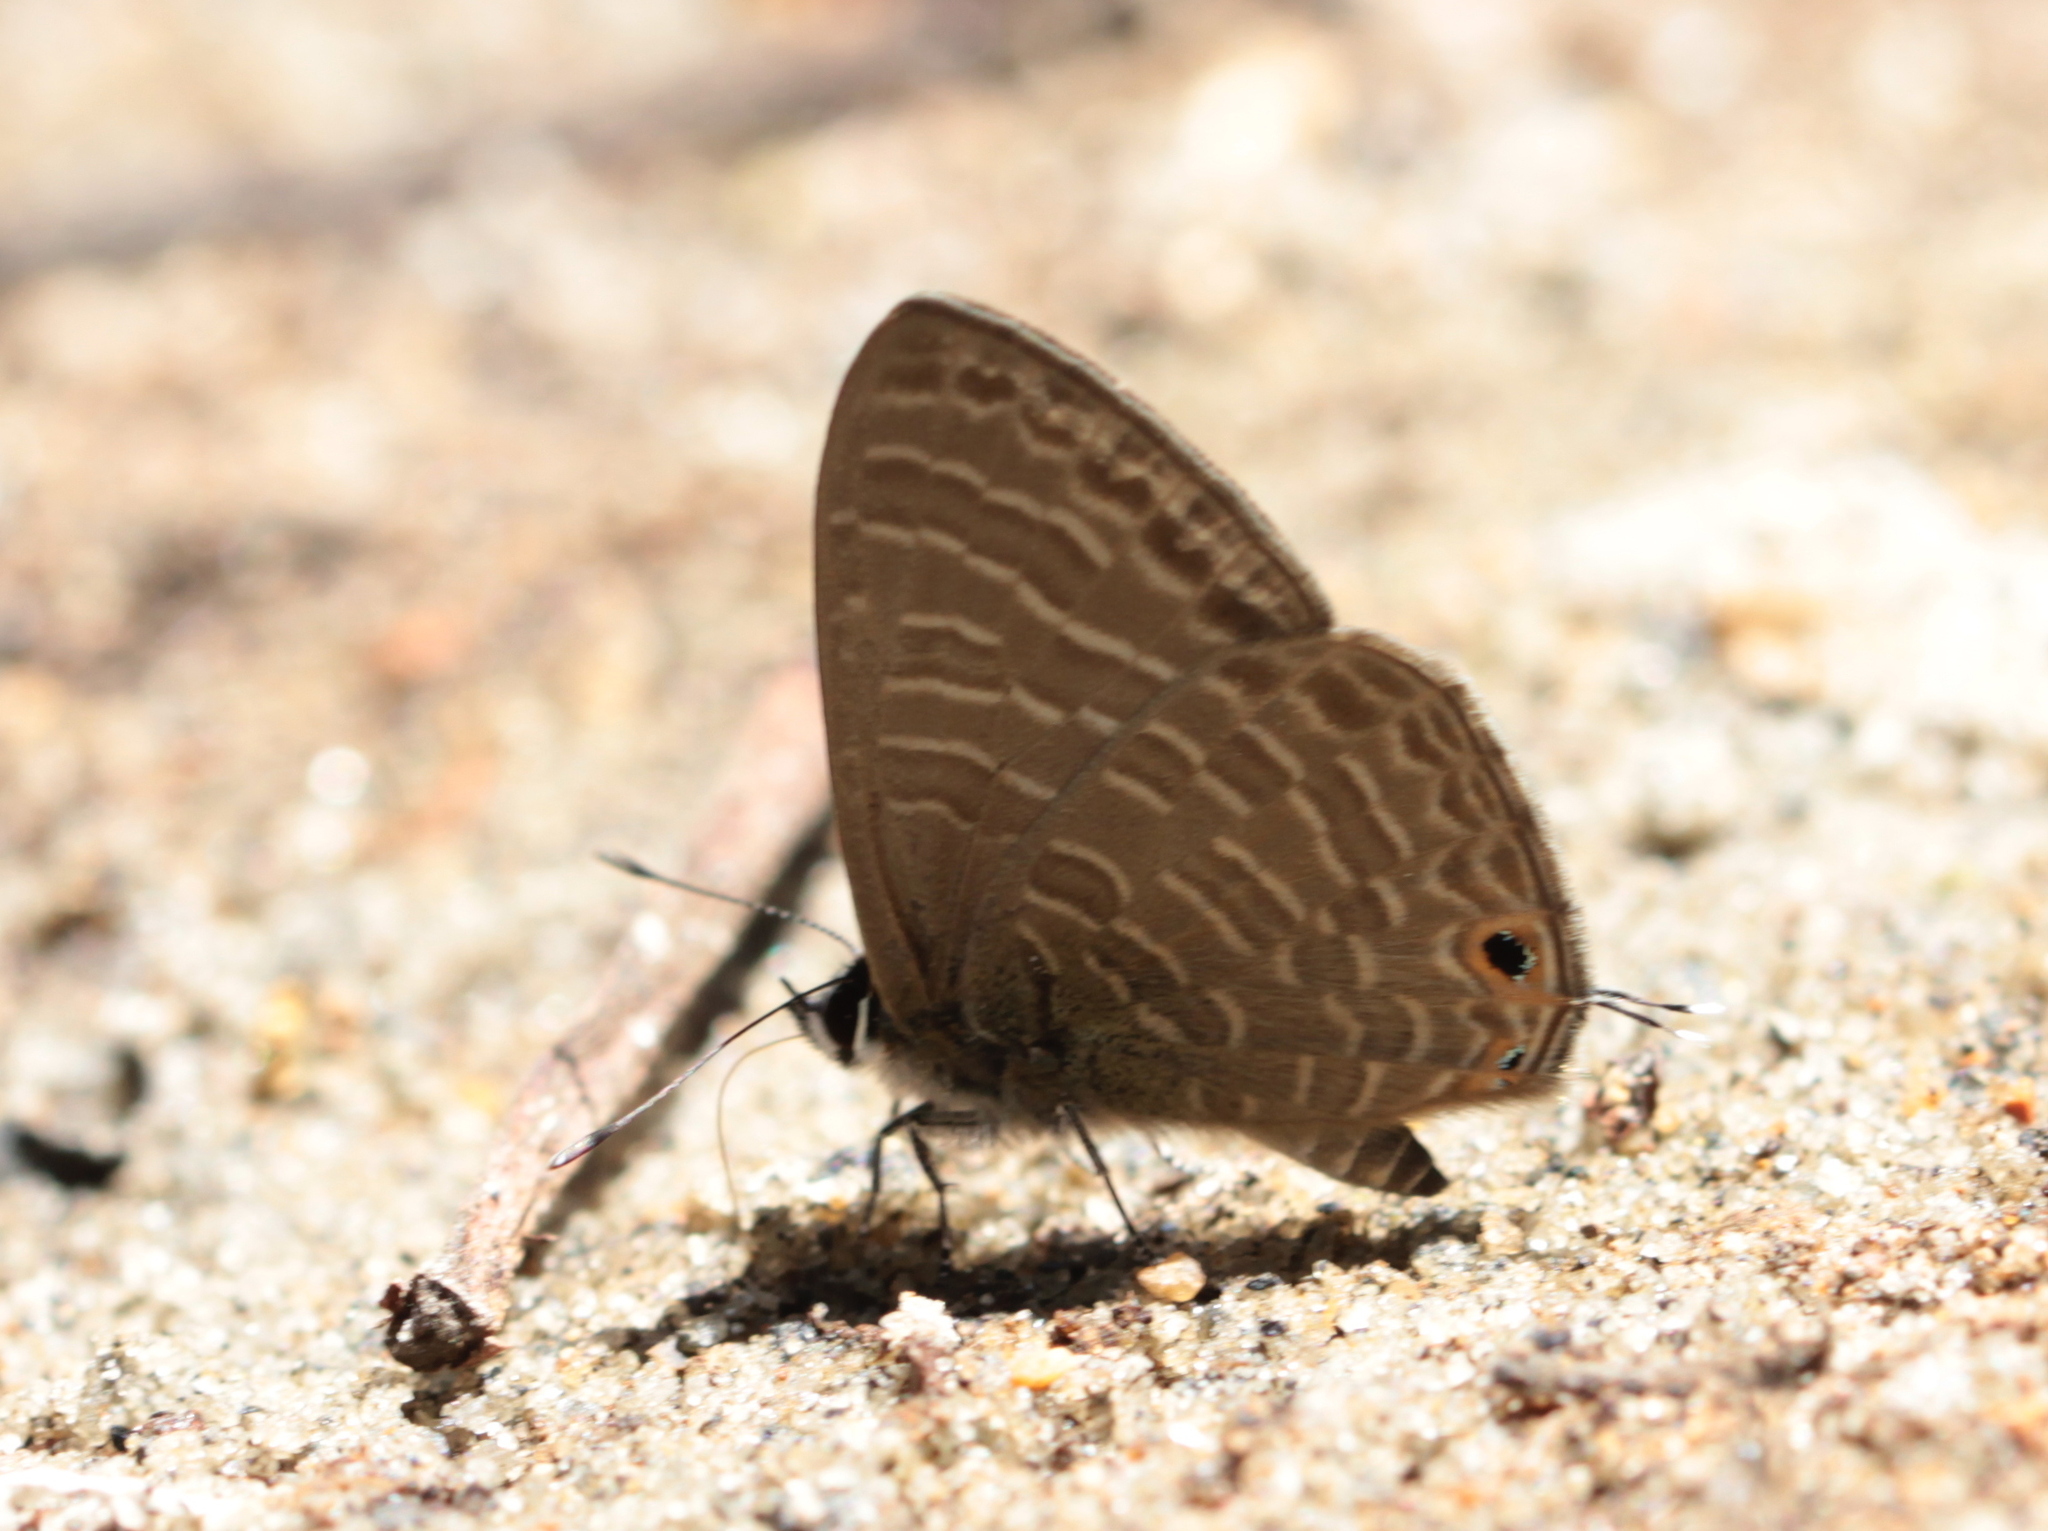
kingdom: Animalia
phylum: Arthropoda
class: Insecta
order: Lepidoptera
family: Lycaenidae
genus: Nacaduba
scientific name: Nacaduba kurava
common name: Transparent 6-line blue
